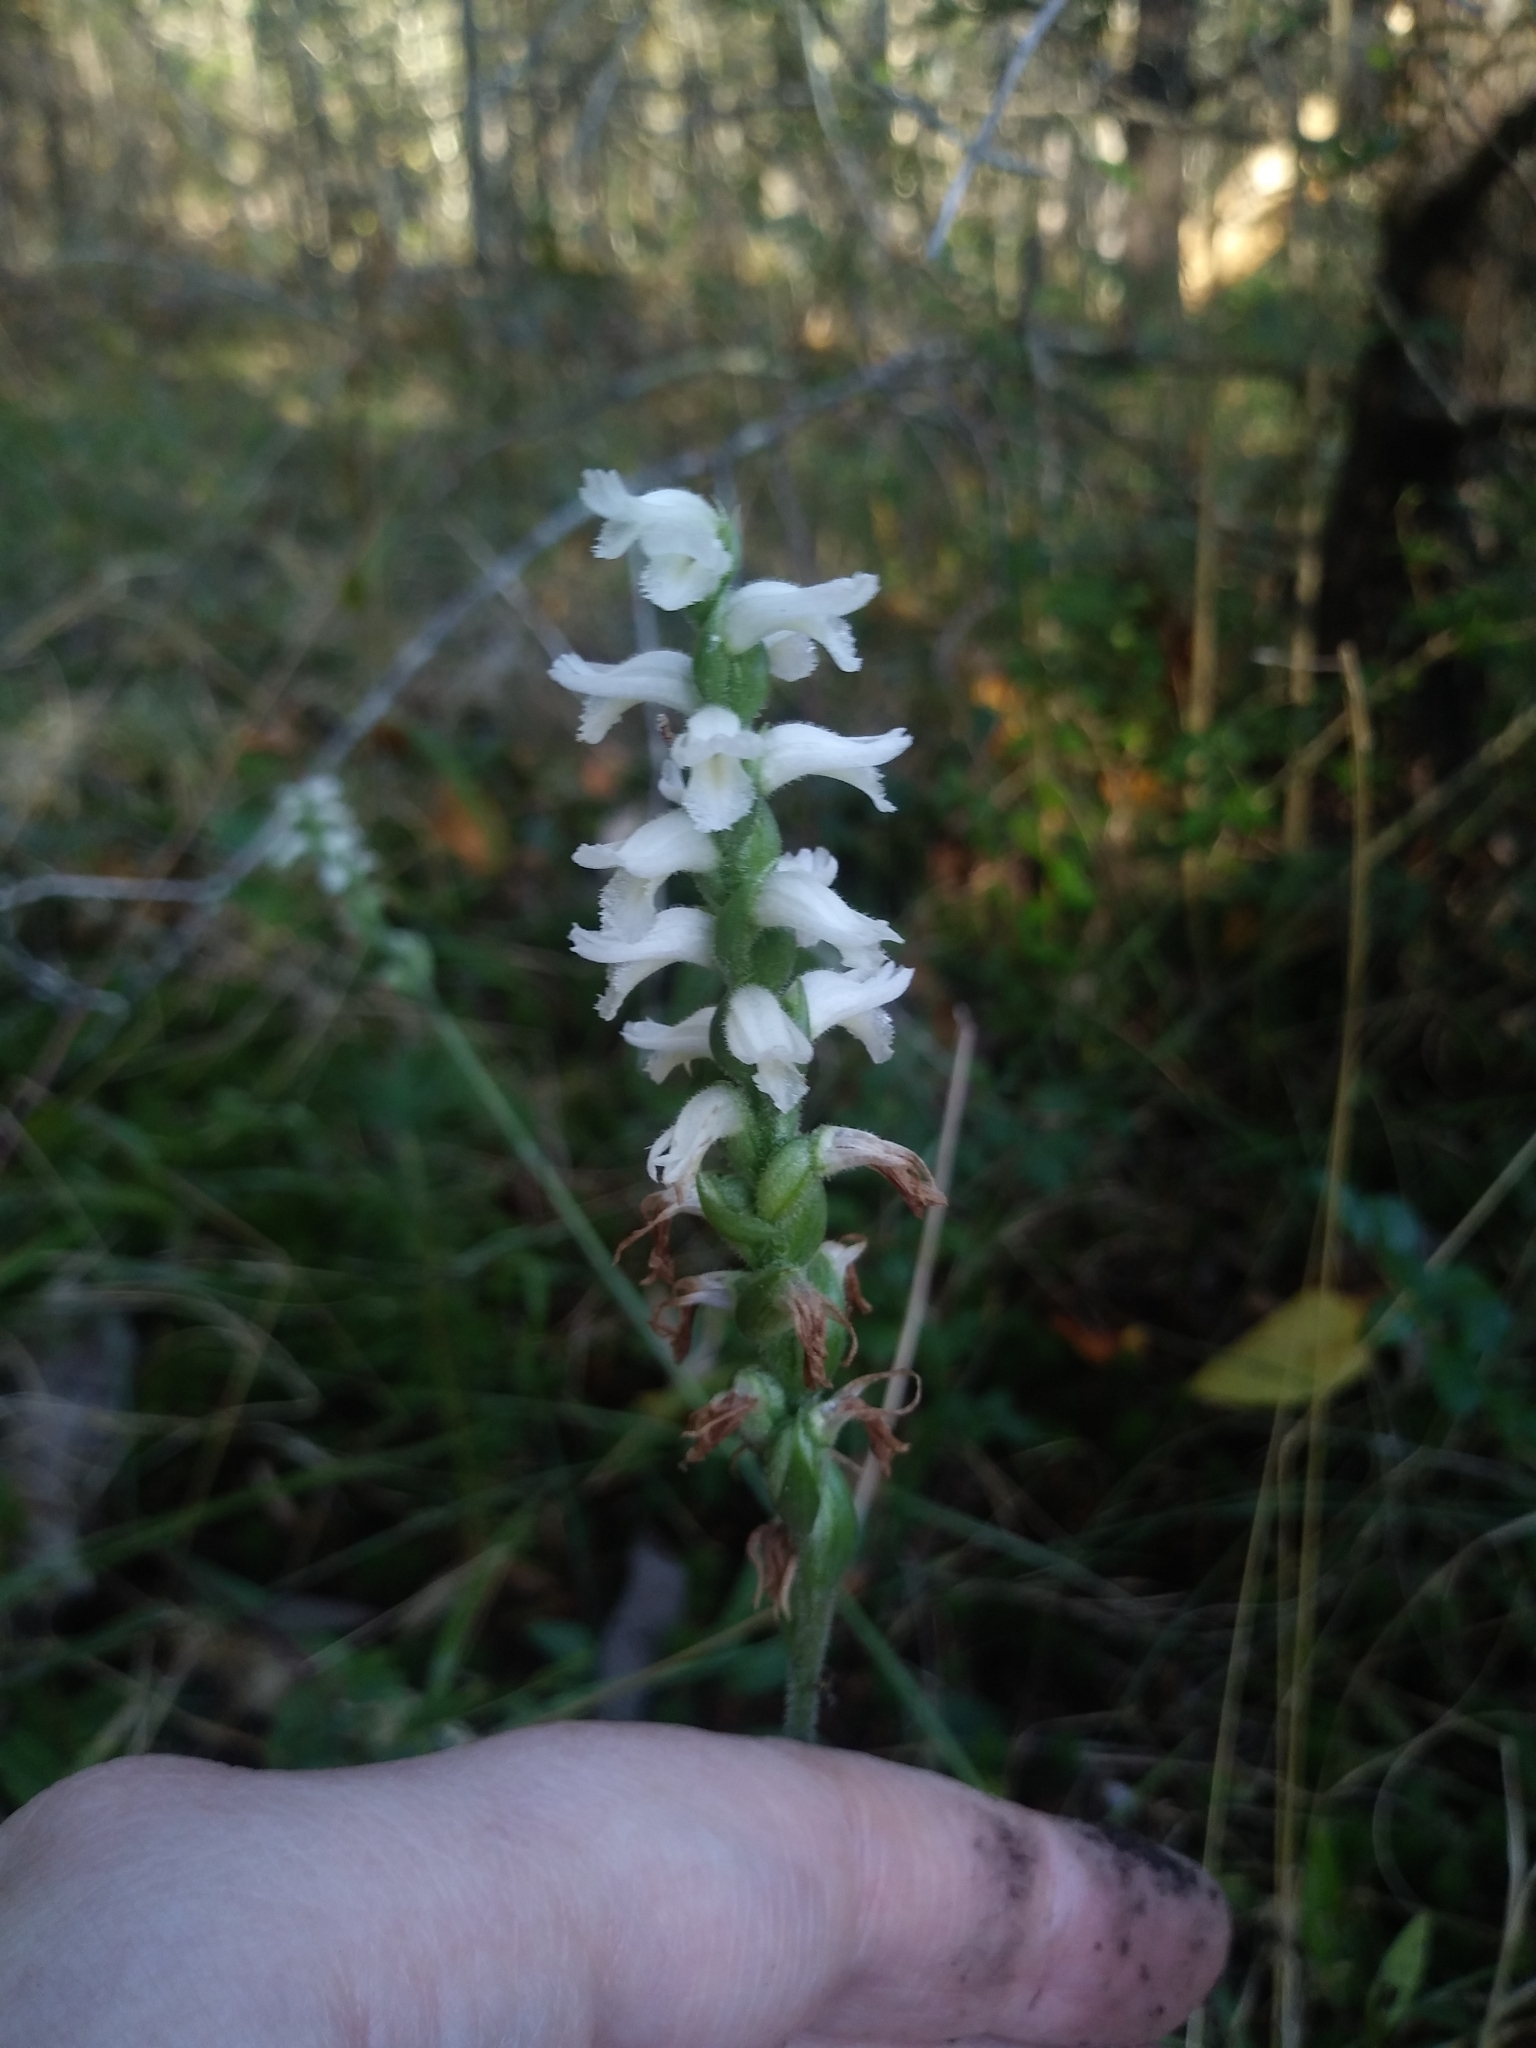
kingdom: Plantae
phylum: Tracheophyta
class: Liliopsida
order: Asparagales
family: Orchidaceae
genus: Spiranthes
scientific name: Spiranthes cernua
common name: Dropping ladies'-tresses
